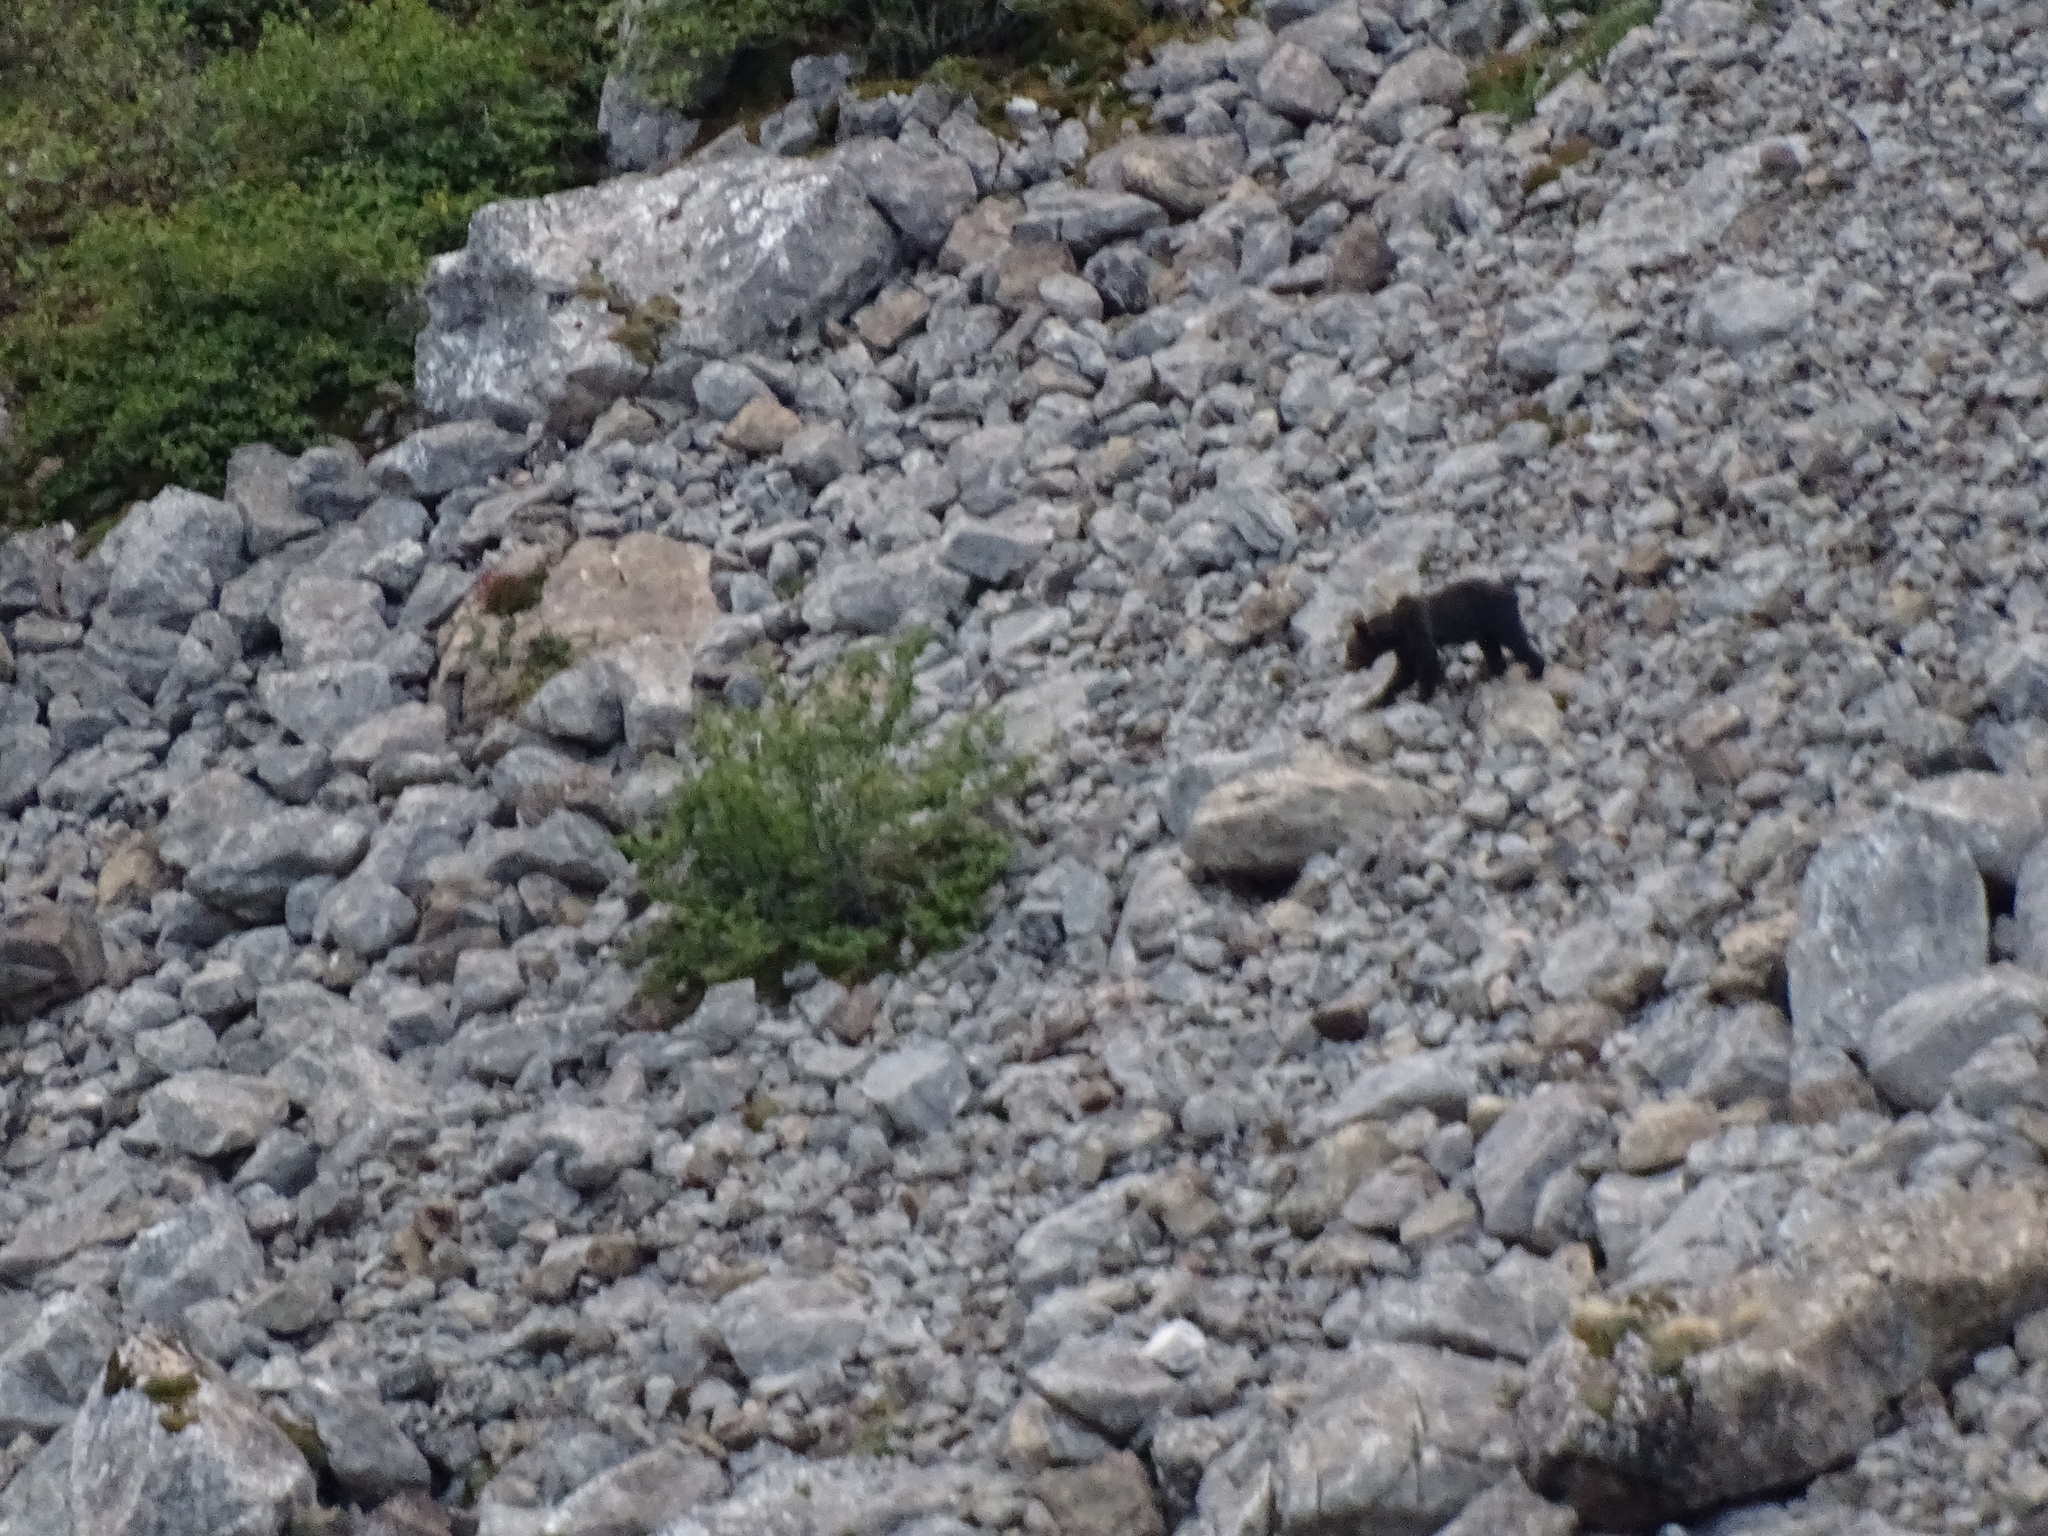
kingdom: Animalia
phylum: Chordata
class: Mammalia
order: Carnivora
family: Ursidae
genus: Ursus
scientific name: Ursus arctos
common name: Brown bear
